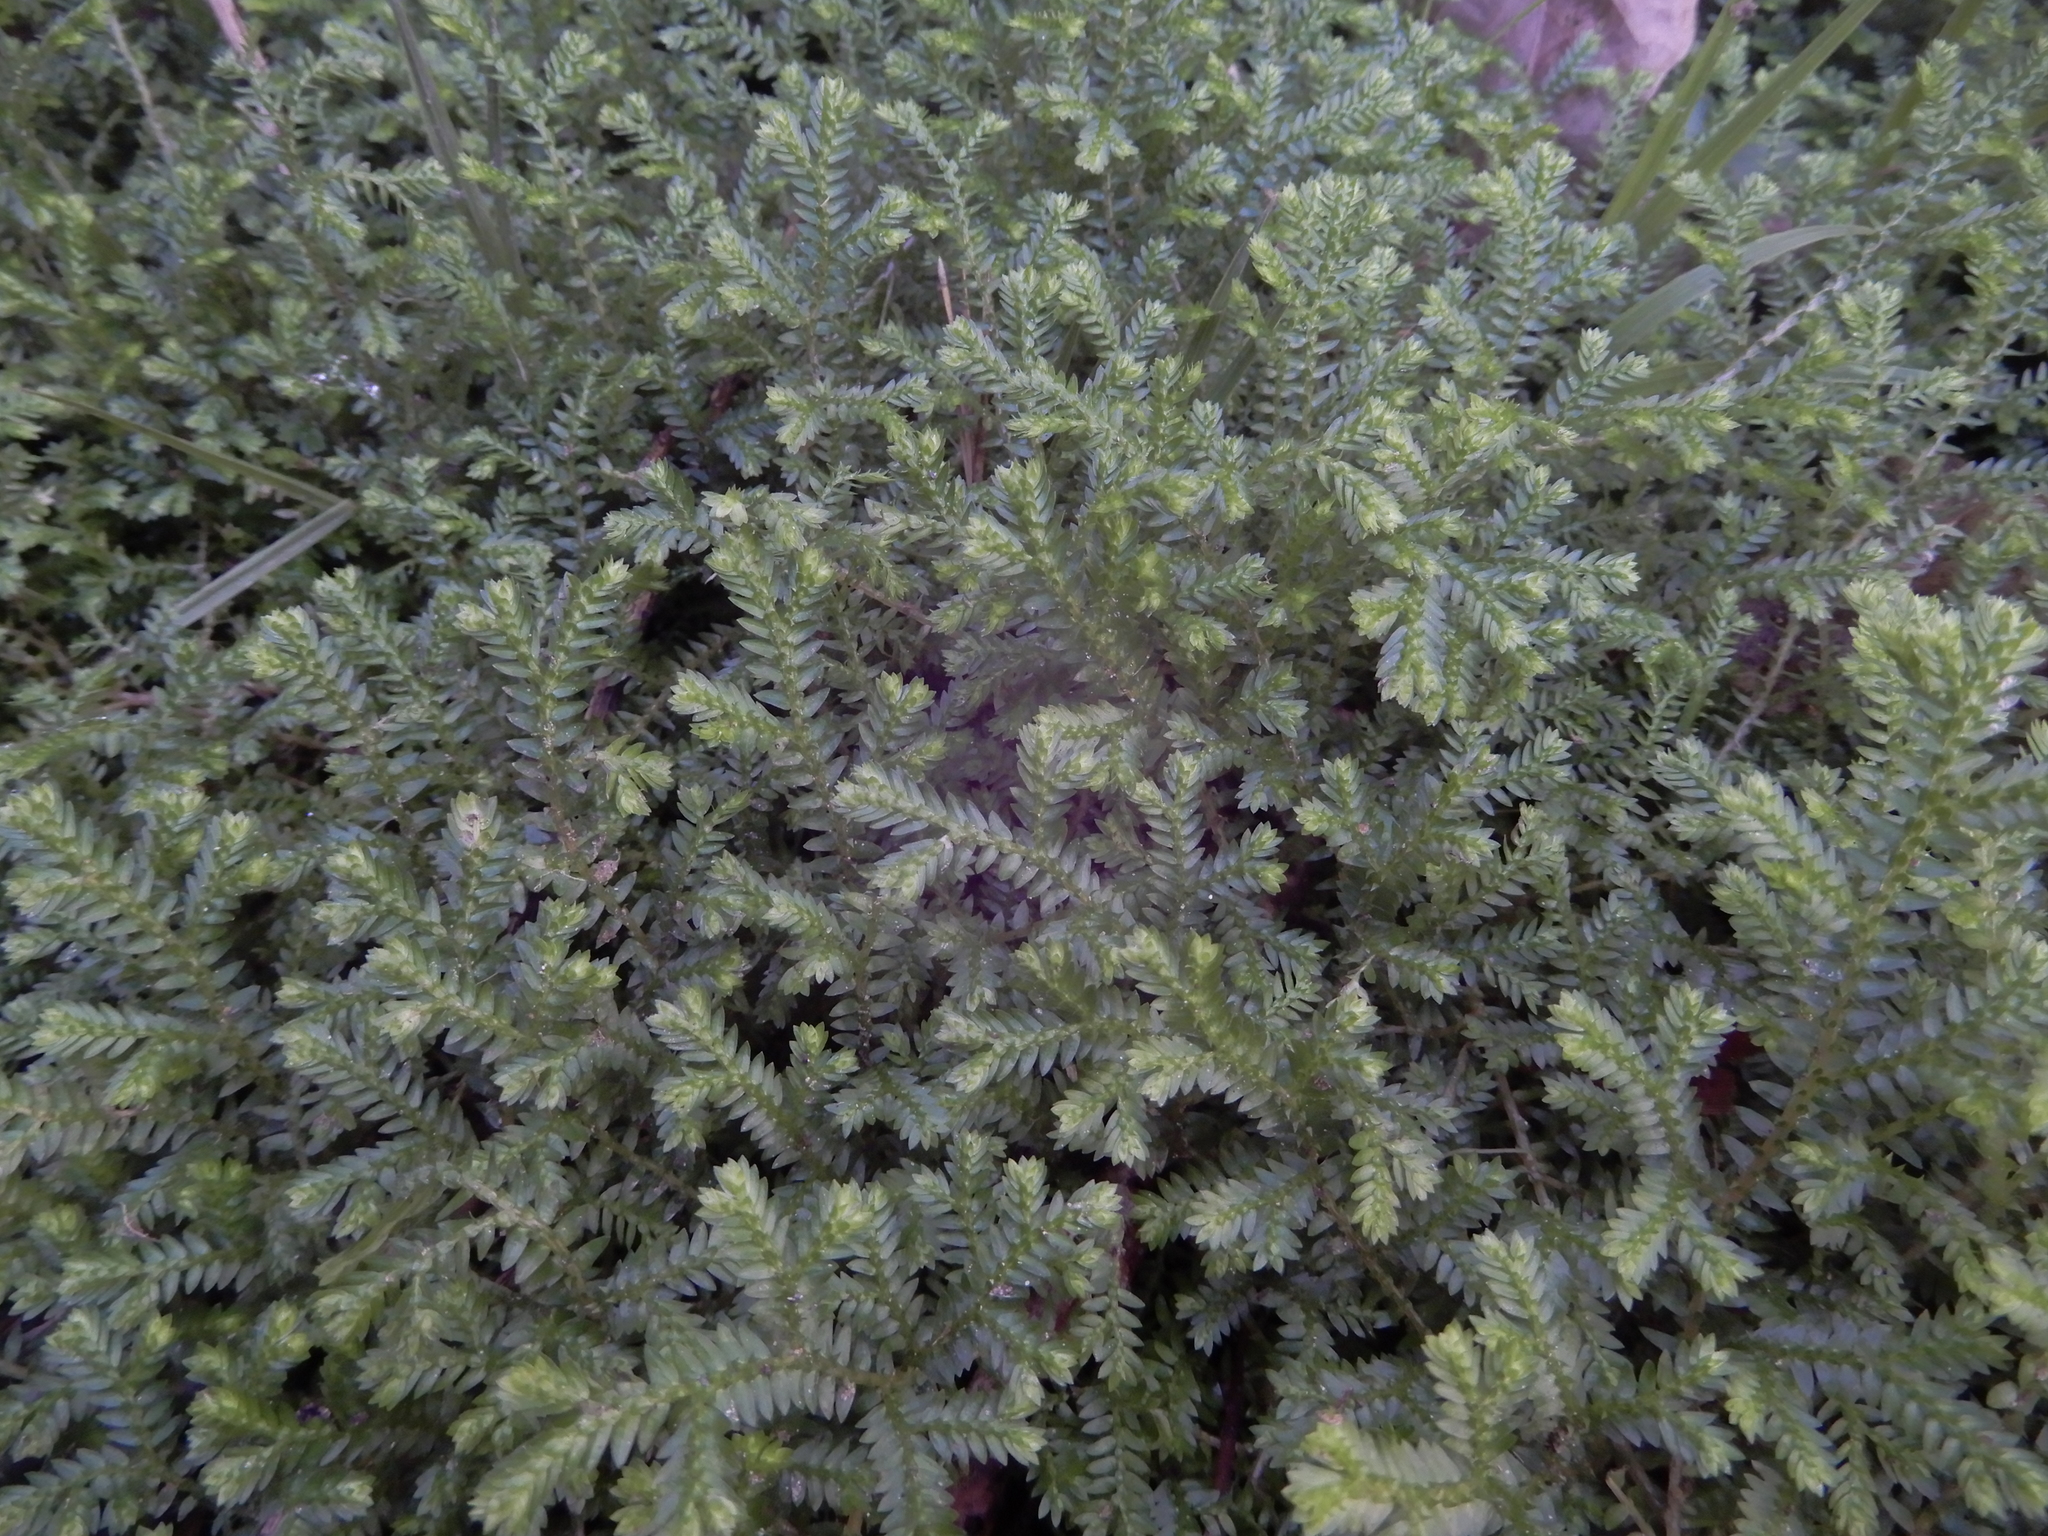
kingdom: Plantae
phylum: Tracheophyta
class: Lycopodiopsida
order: Selaginellales
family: Selaginellaceae
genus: Selaginella
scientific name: Selaginella kraussiana
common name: Krauss' spikemoss
